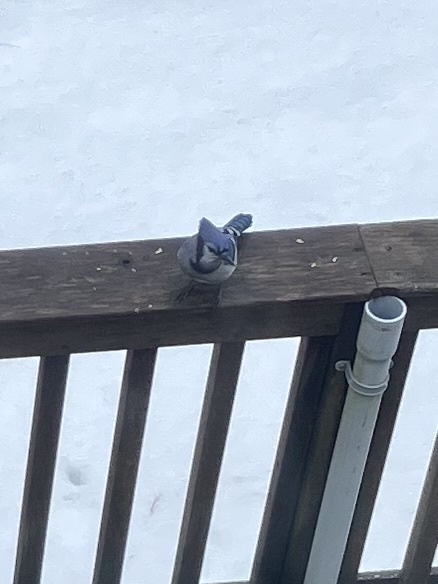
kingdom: Animalia
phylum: Chordata
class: Aves
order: Passeriformes
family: Corvidae
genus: Cyanocitta
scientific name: Cyanocitta cristata
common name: Blue jay
